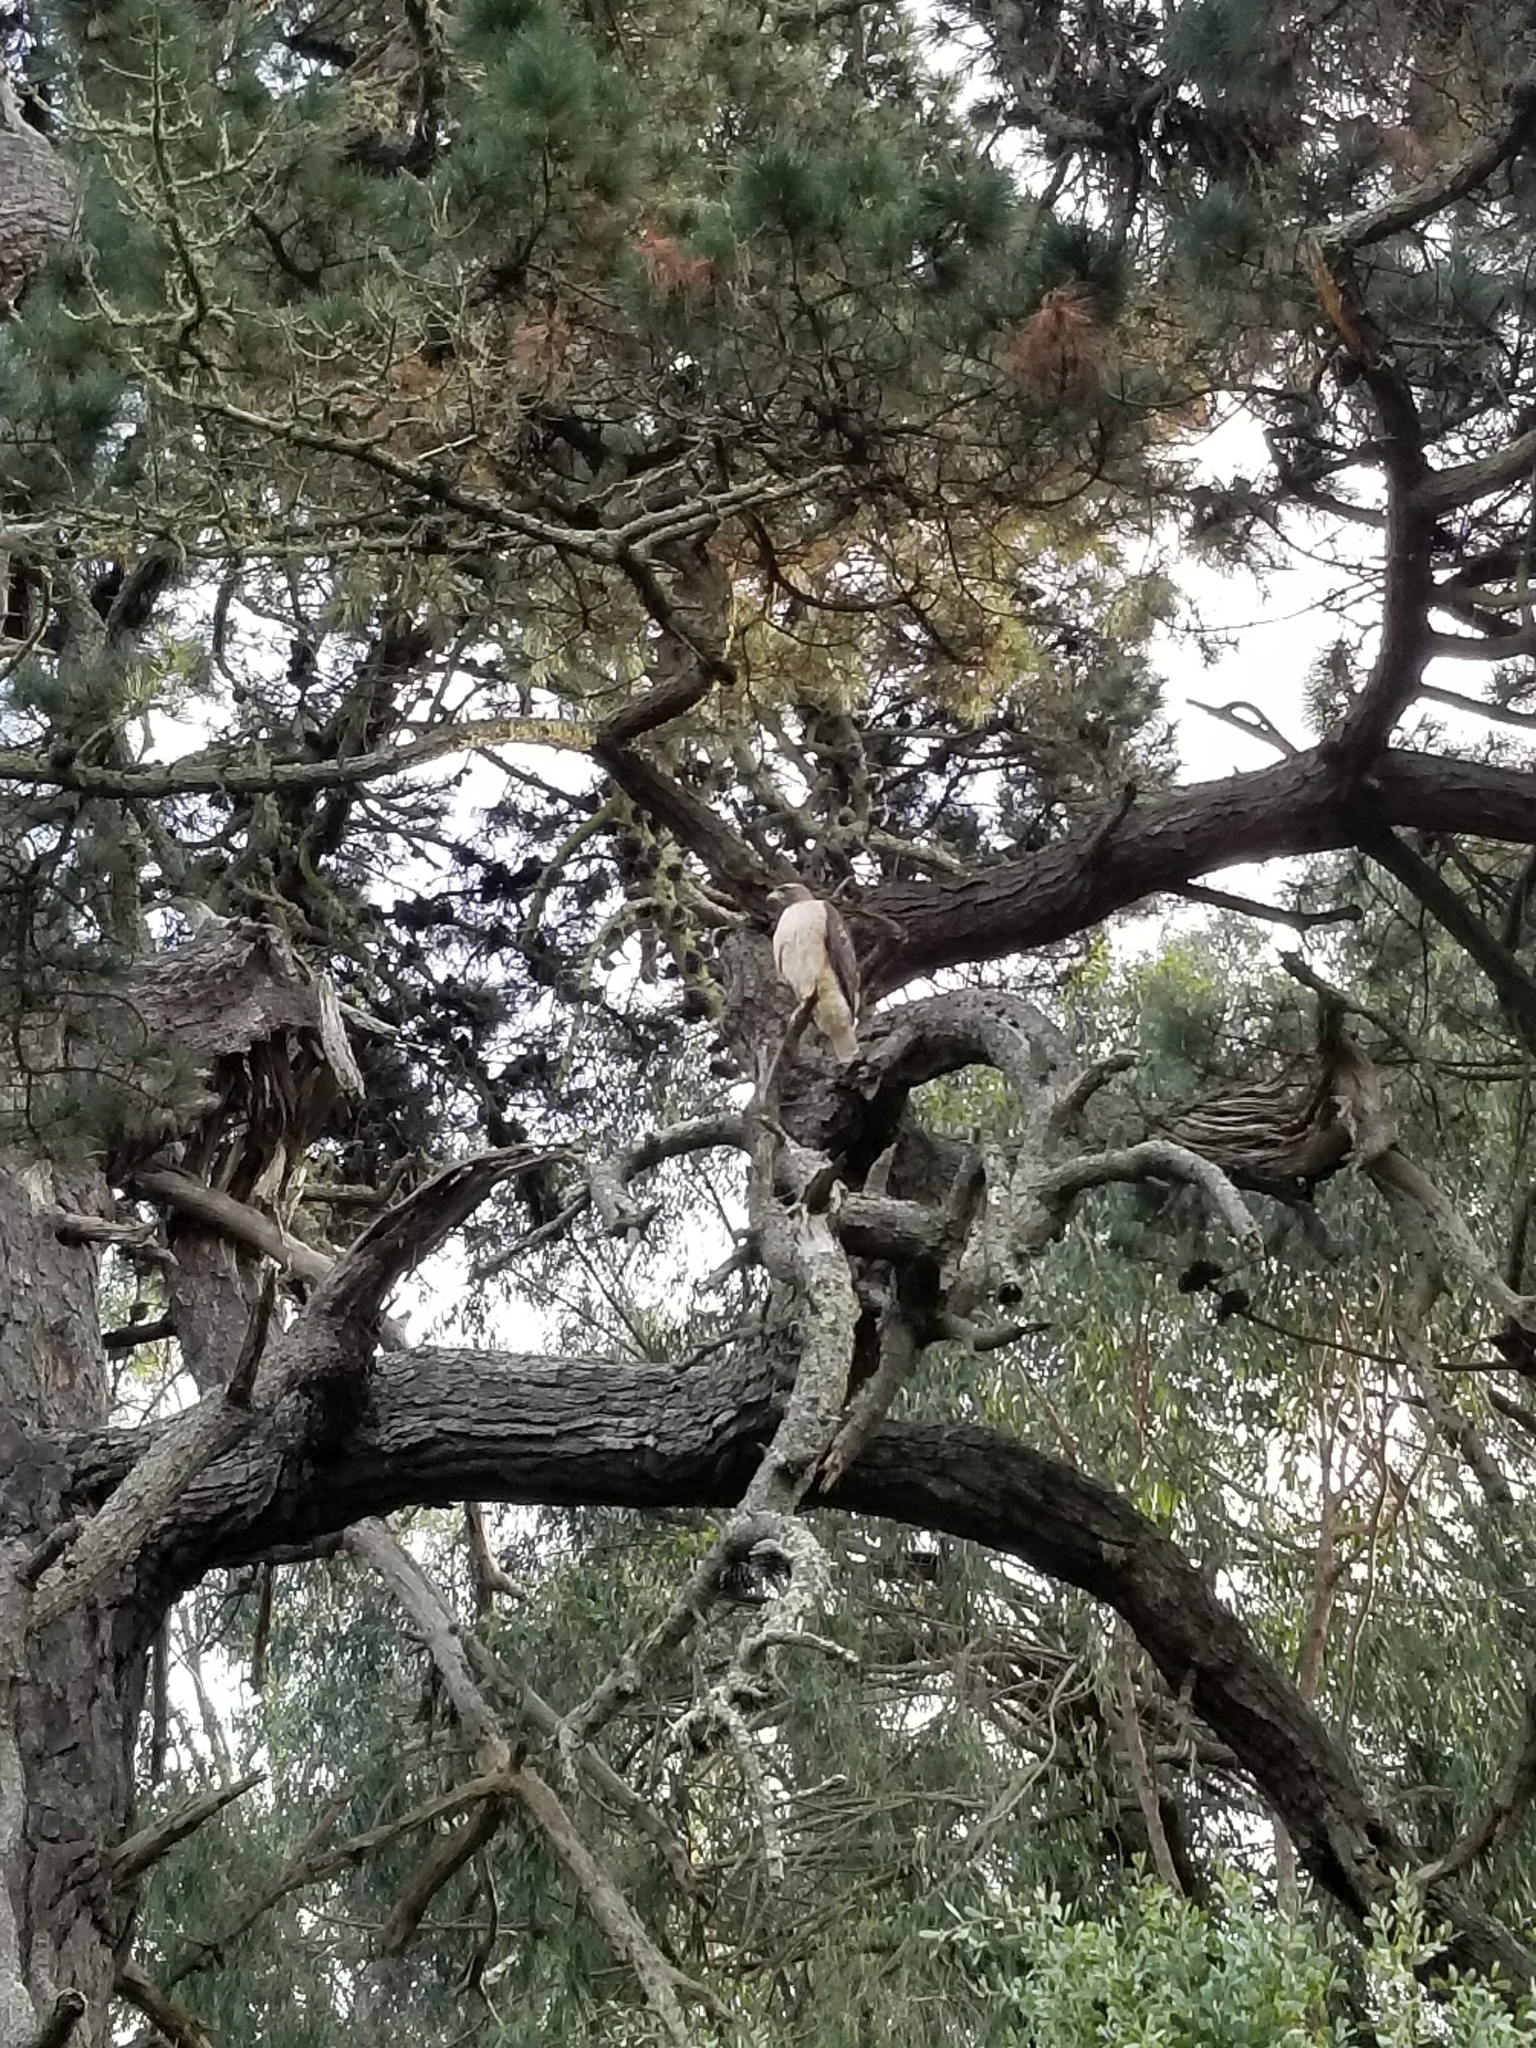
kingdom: Animalia
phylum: Chordata
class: Aves
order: Accipitriformes
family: Accipitridae
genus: Buteo
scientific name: Buteo jamaicensis
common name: Red-tailed hawk
